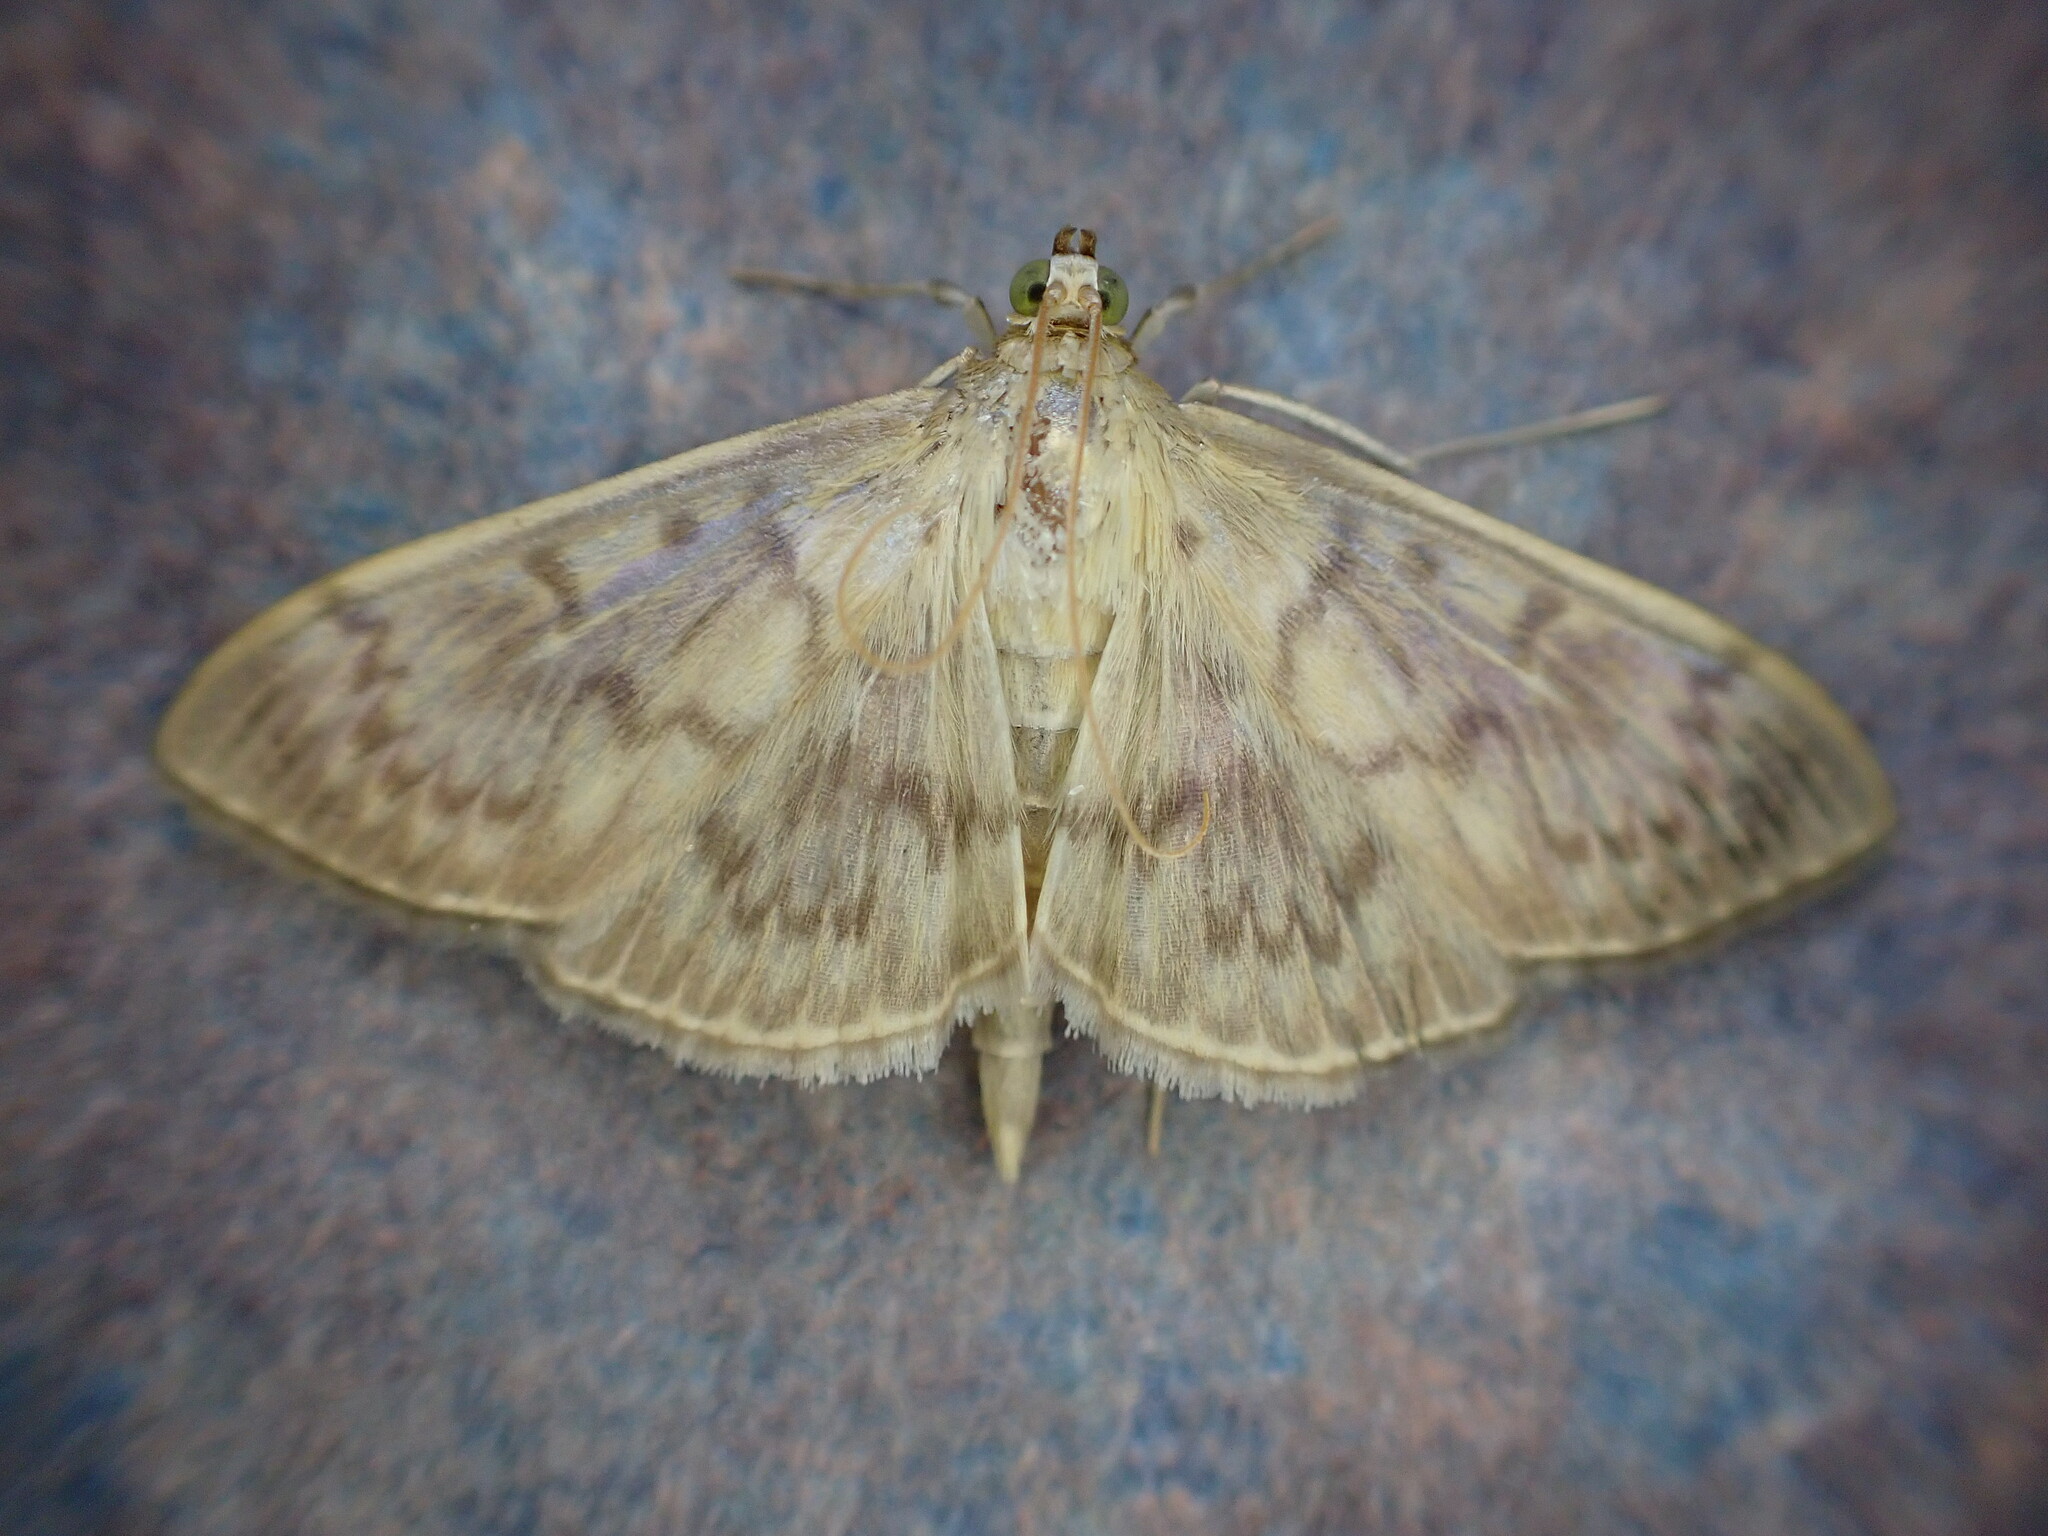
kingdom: Animalia
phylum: Arthropoda
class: Insecta
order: Lepidoptera
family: Crambidae
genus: Patania
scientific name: Patania ruralis
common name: Mother of pearl
